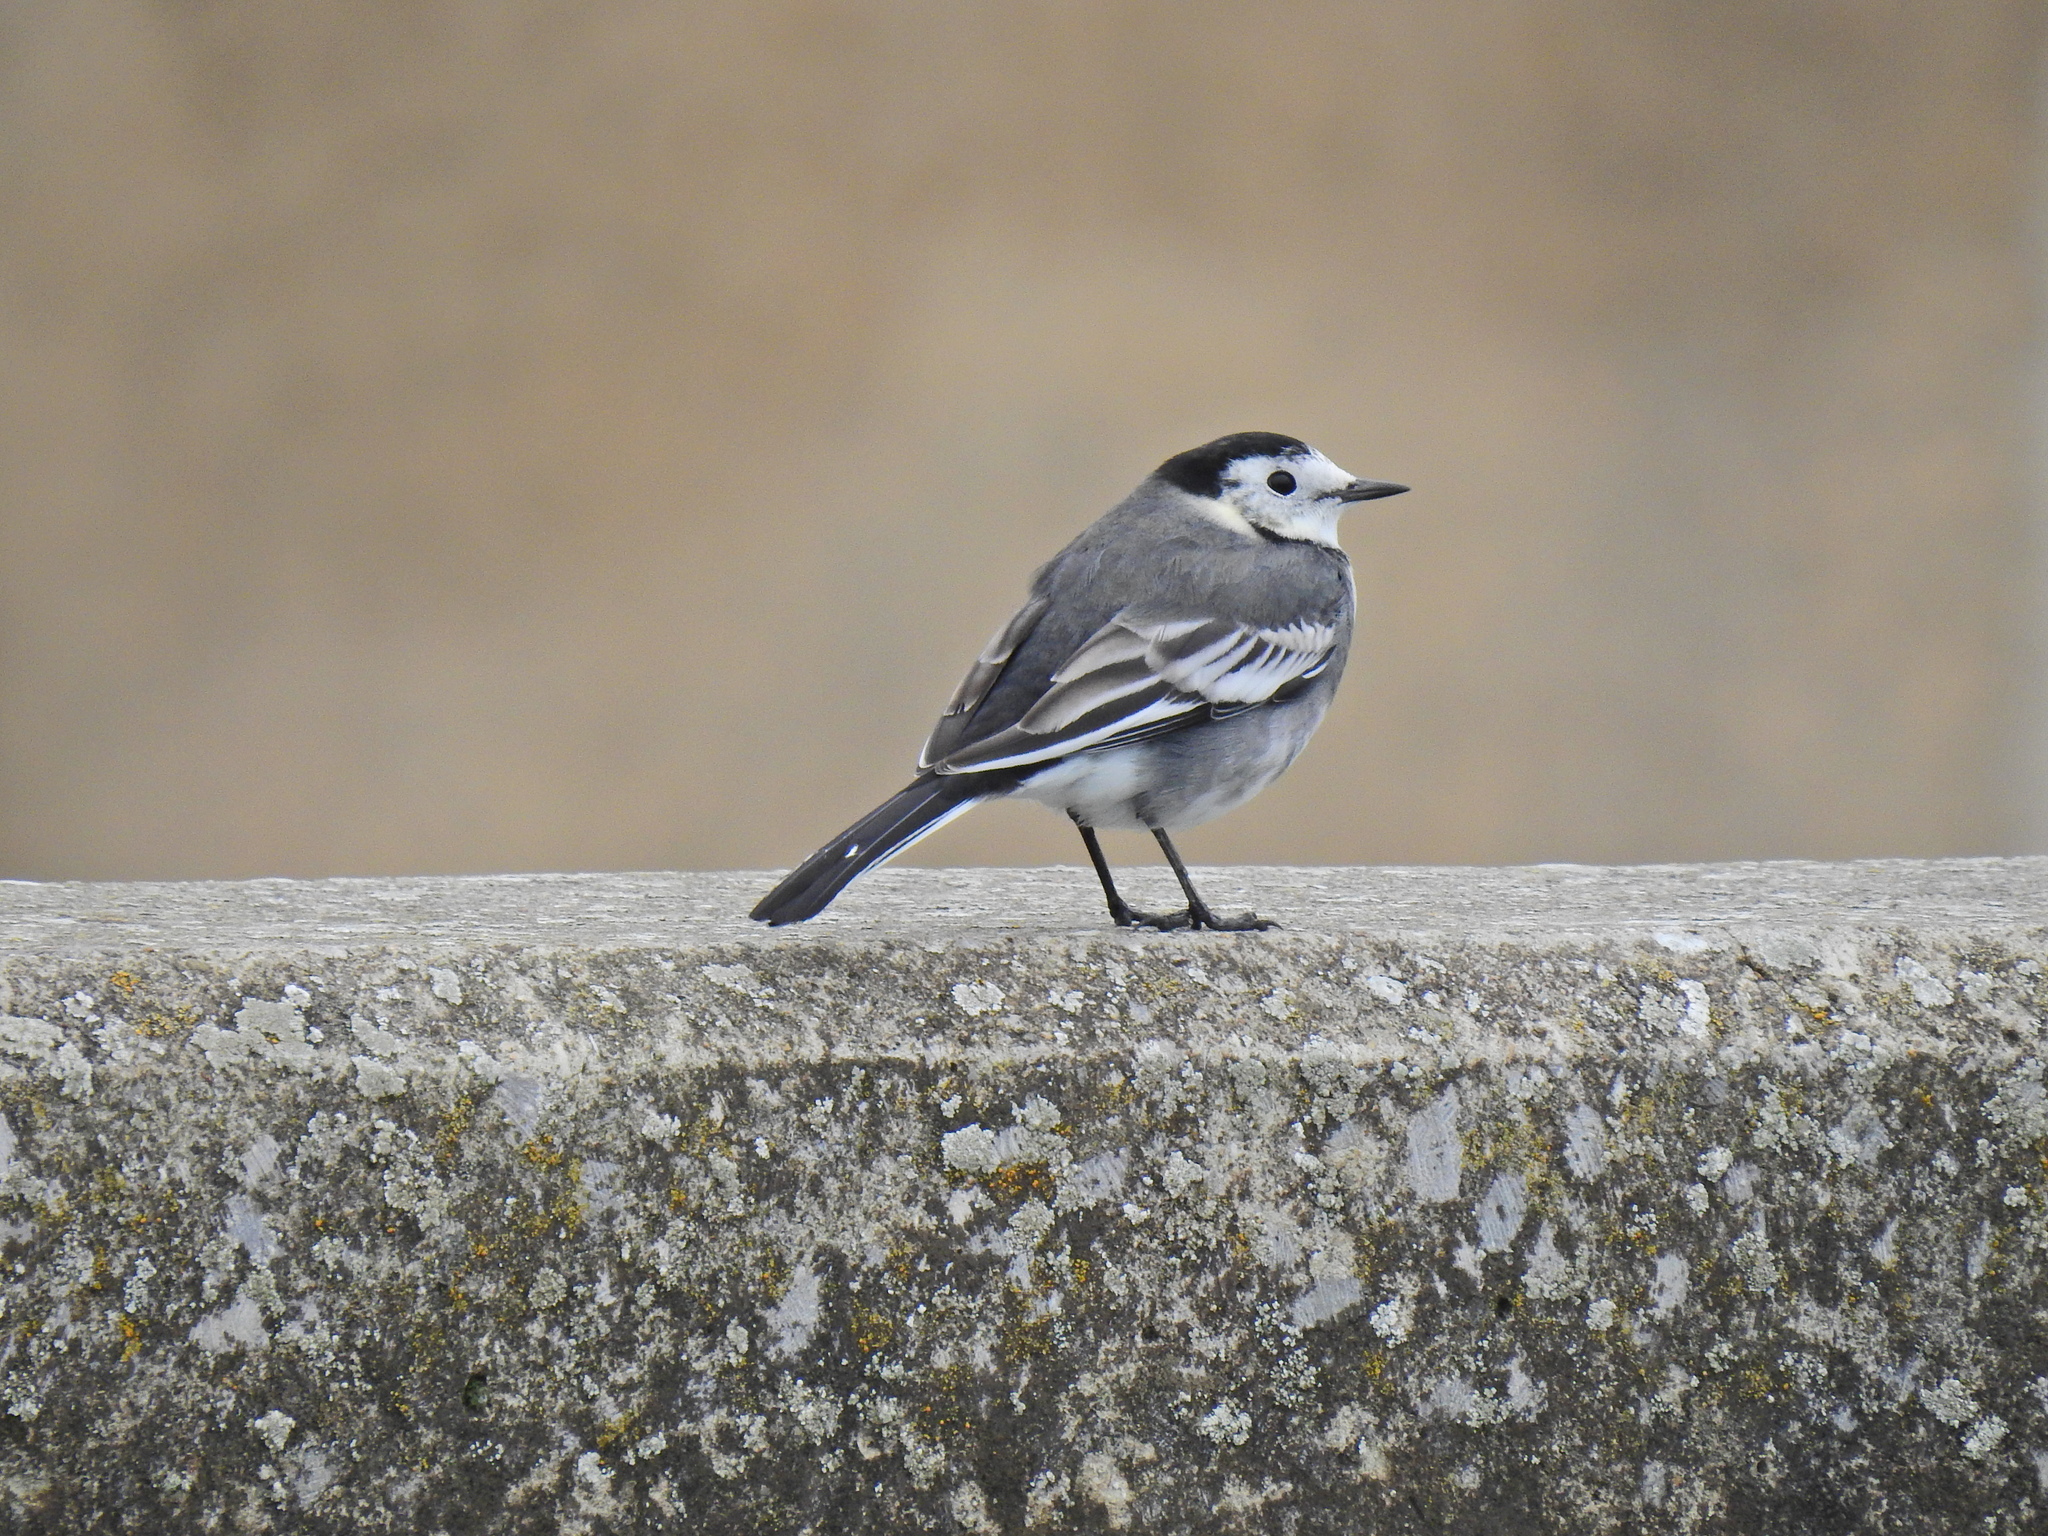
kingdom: Animalia
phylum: Chordata
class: Aves
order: Passeriformes
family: Motacillidae
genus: Motacilla
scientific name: Motacilla alba
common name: White wagtail
